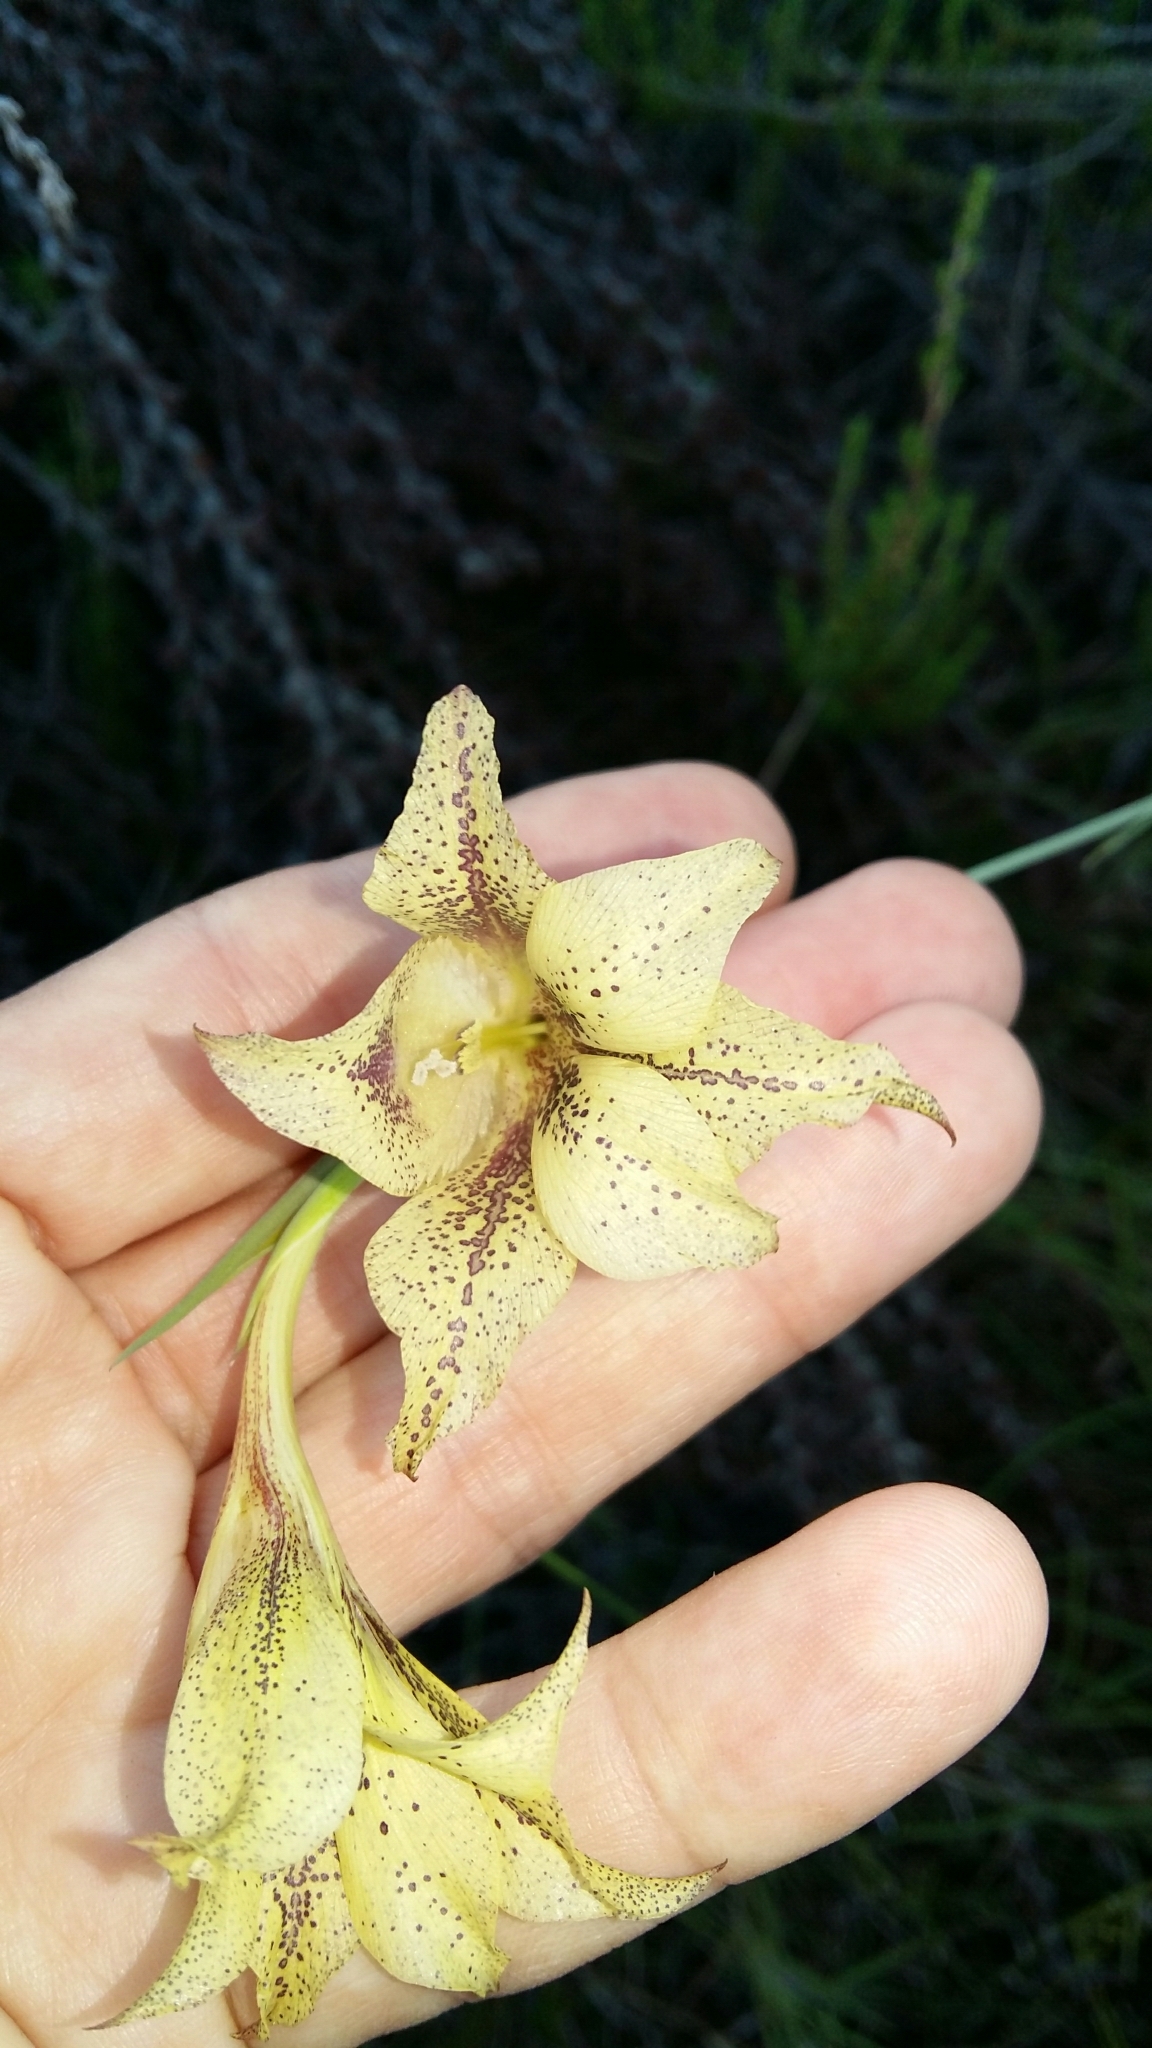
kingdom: Plantae
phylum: Tracheophyta
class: Liliopsida
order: Asparagales
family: Iridaceae
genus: Gladiolus
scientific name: Gladiolus maculatus
